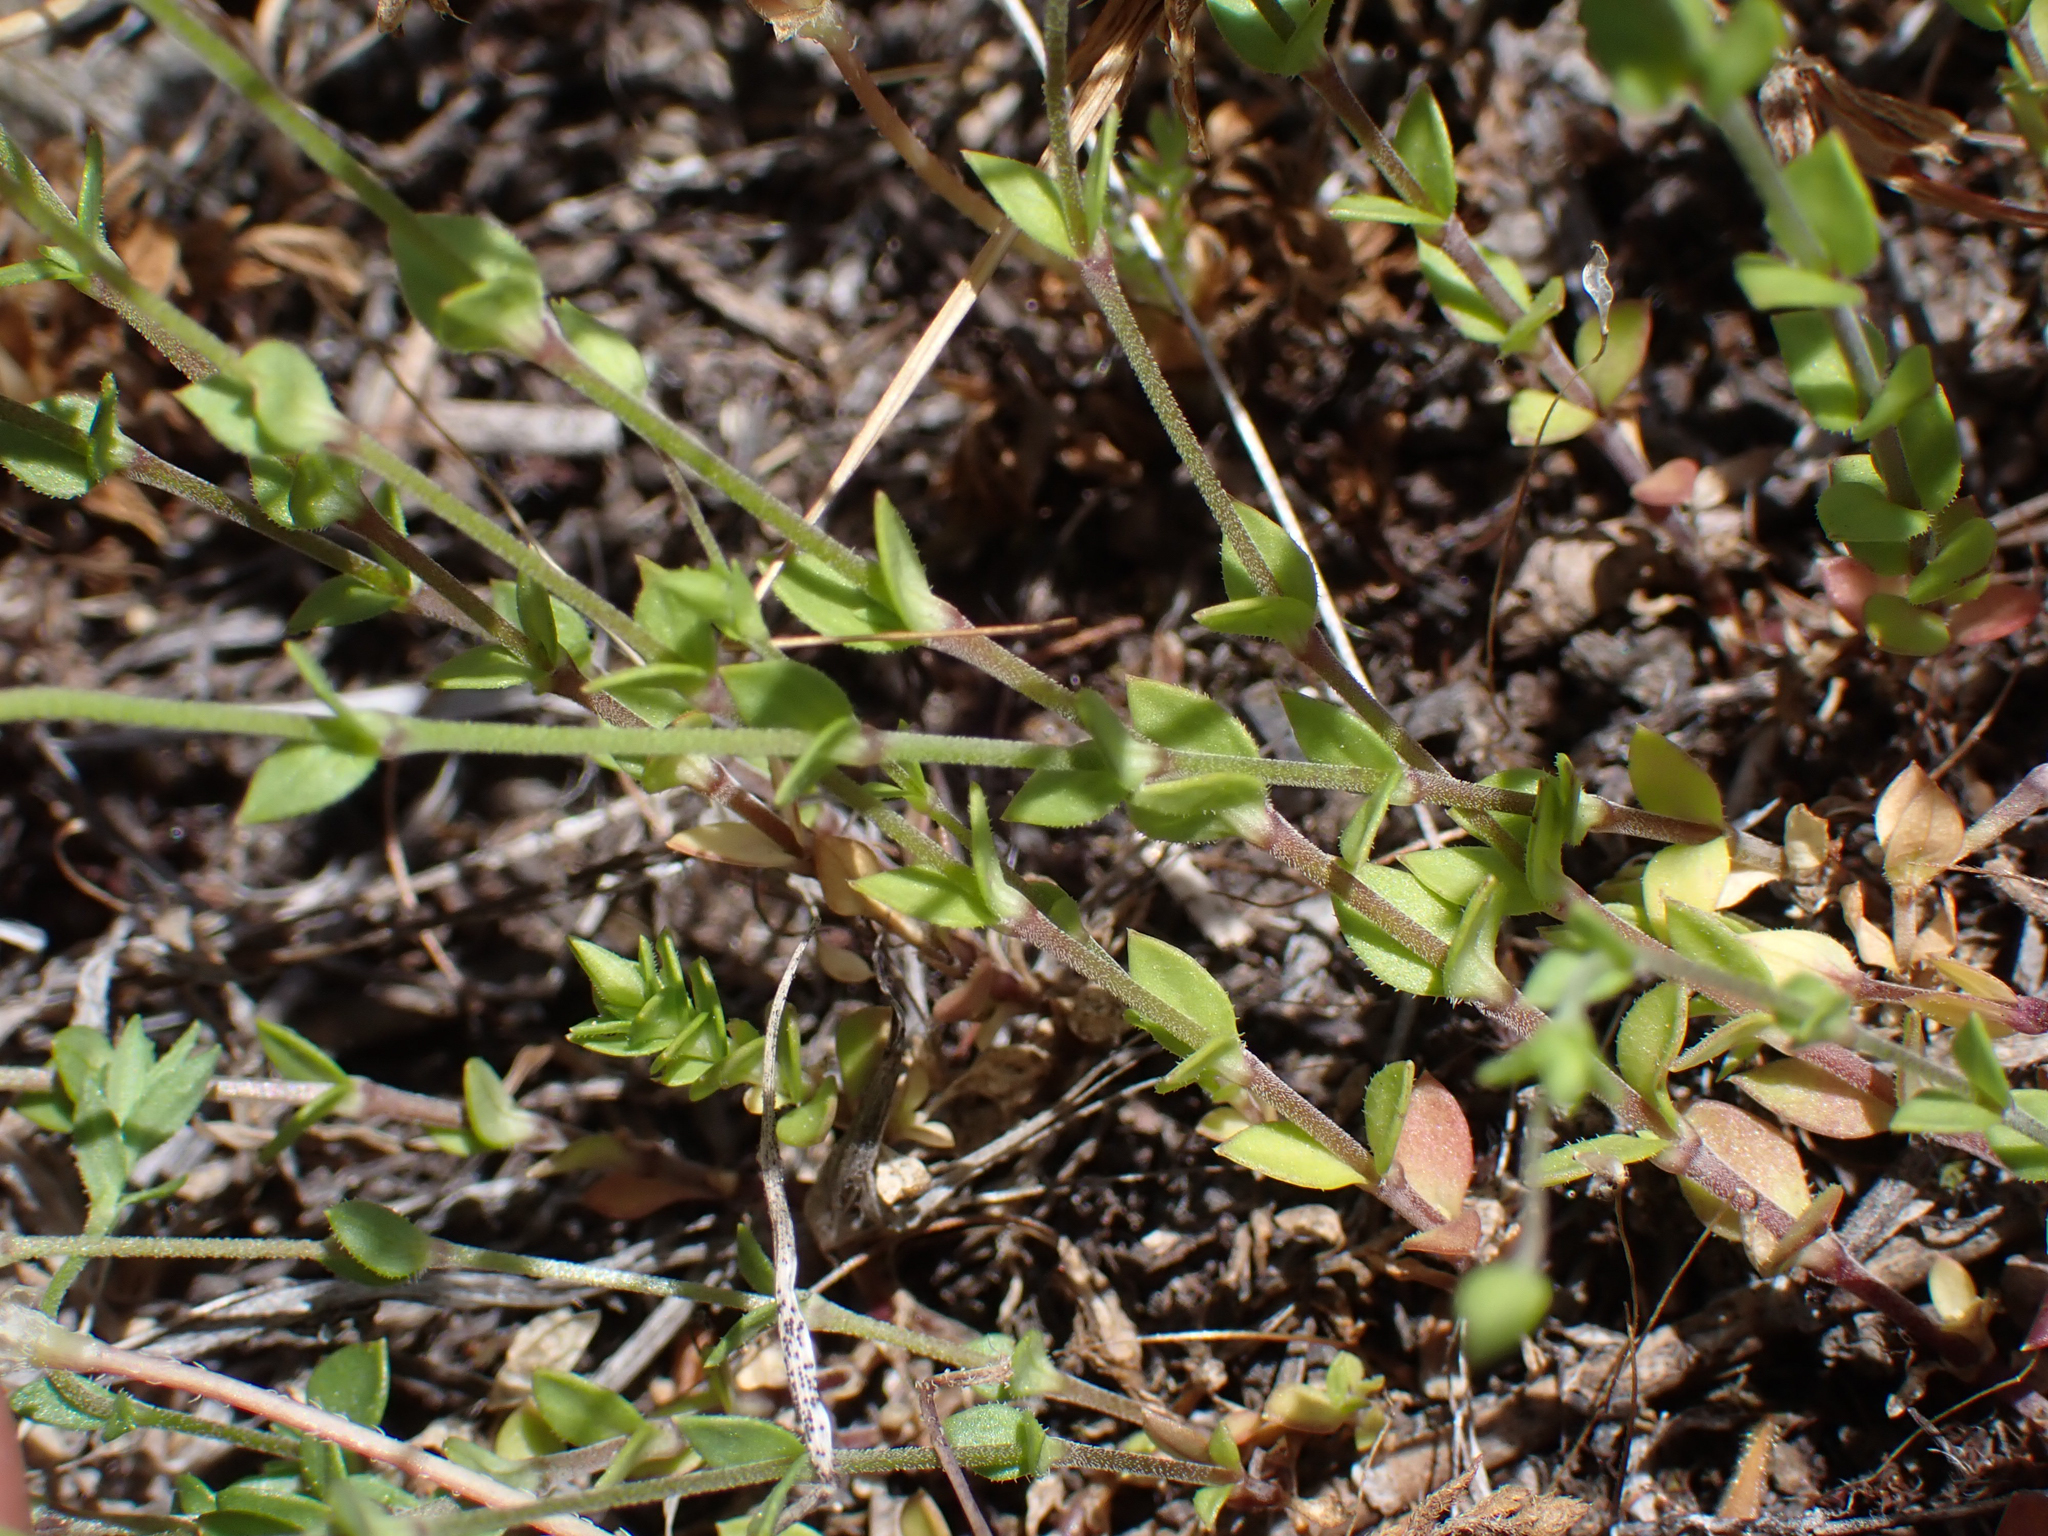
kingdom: Plantae
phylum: Tracheophyta
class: Magnoliopsida
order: Caryophyllales
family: Caryophyllaceae
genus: Arenaria
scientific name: Arenaria serpyllifolia
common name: Thyme-leaved sandwort
